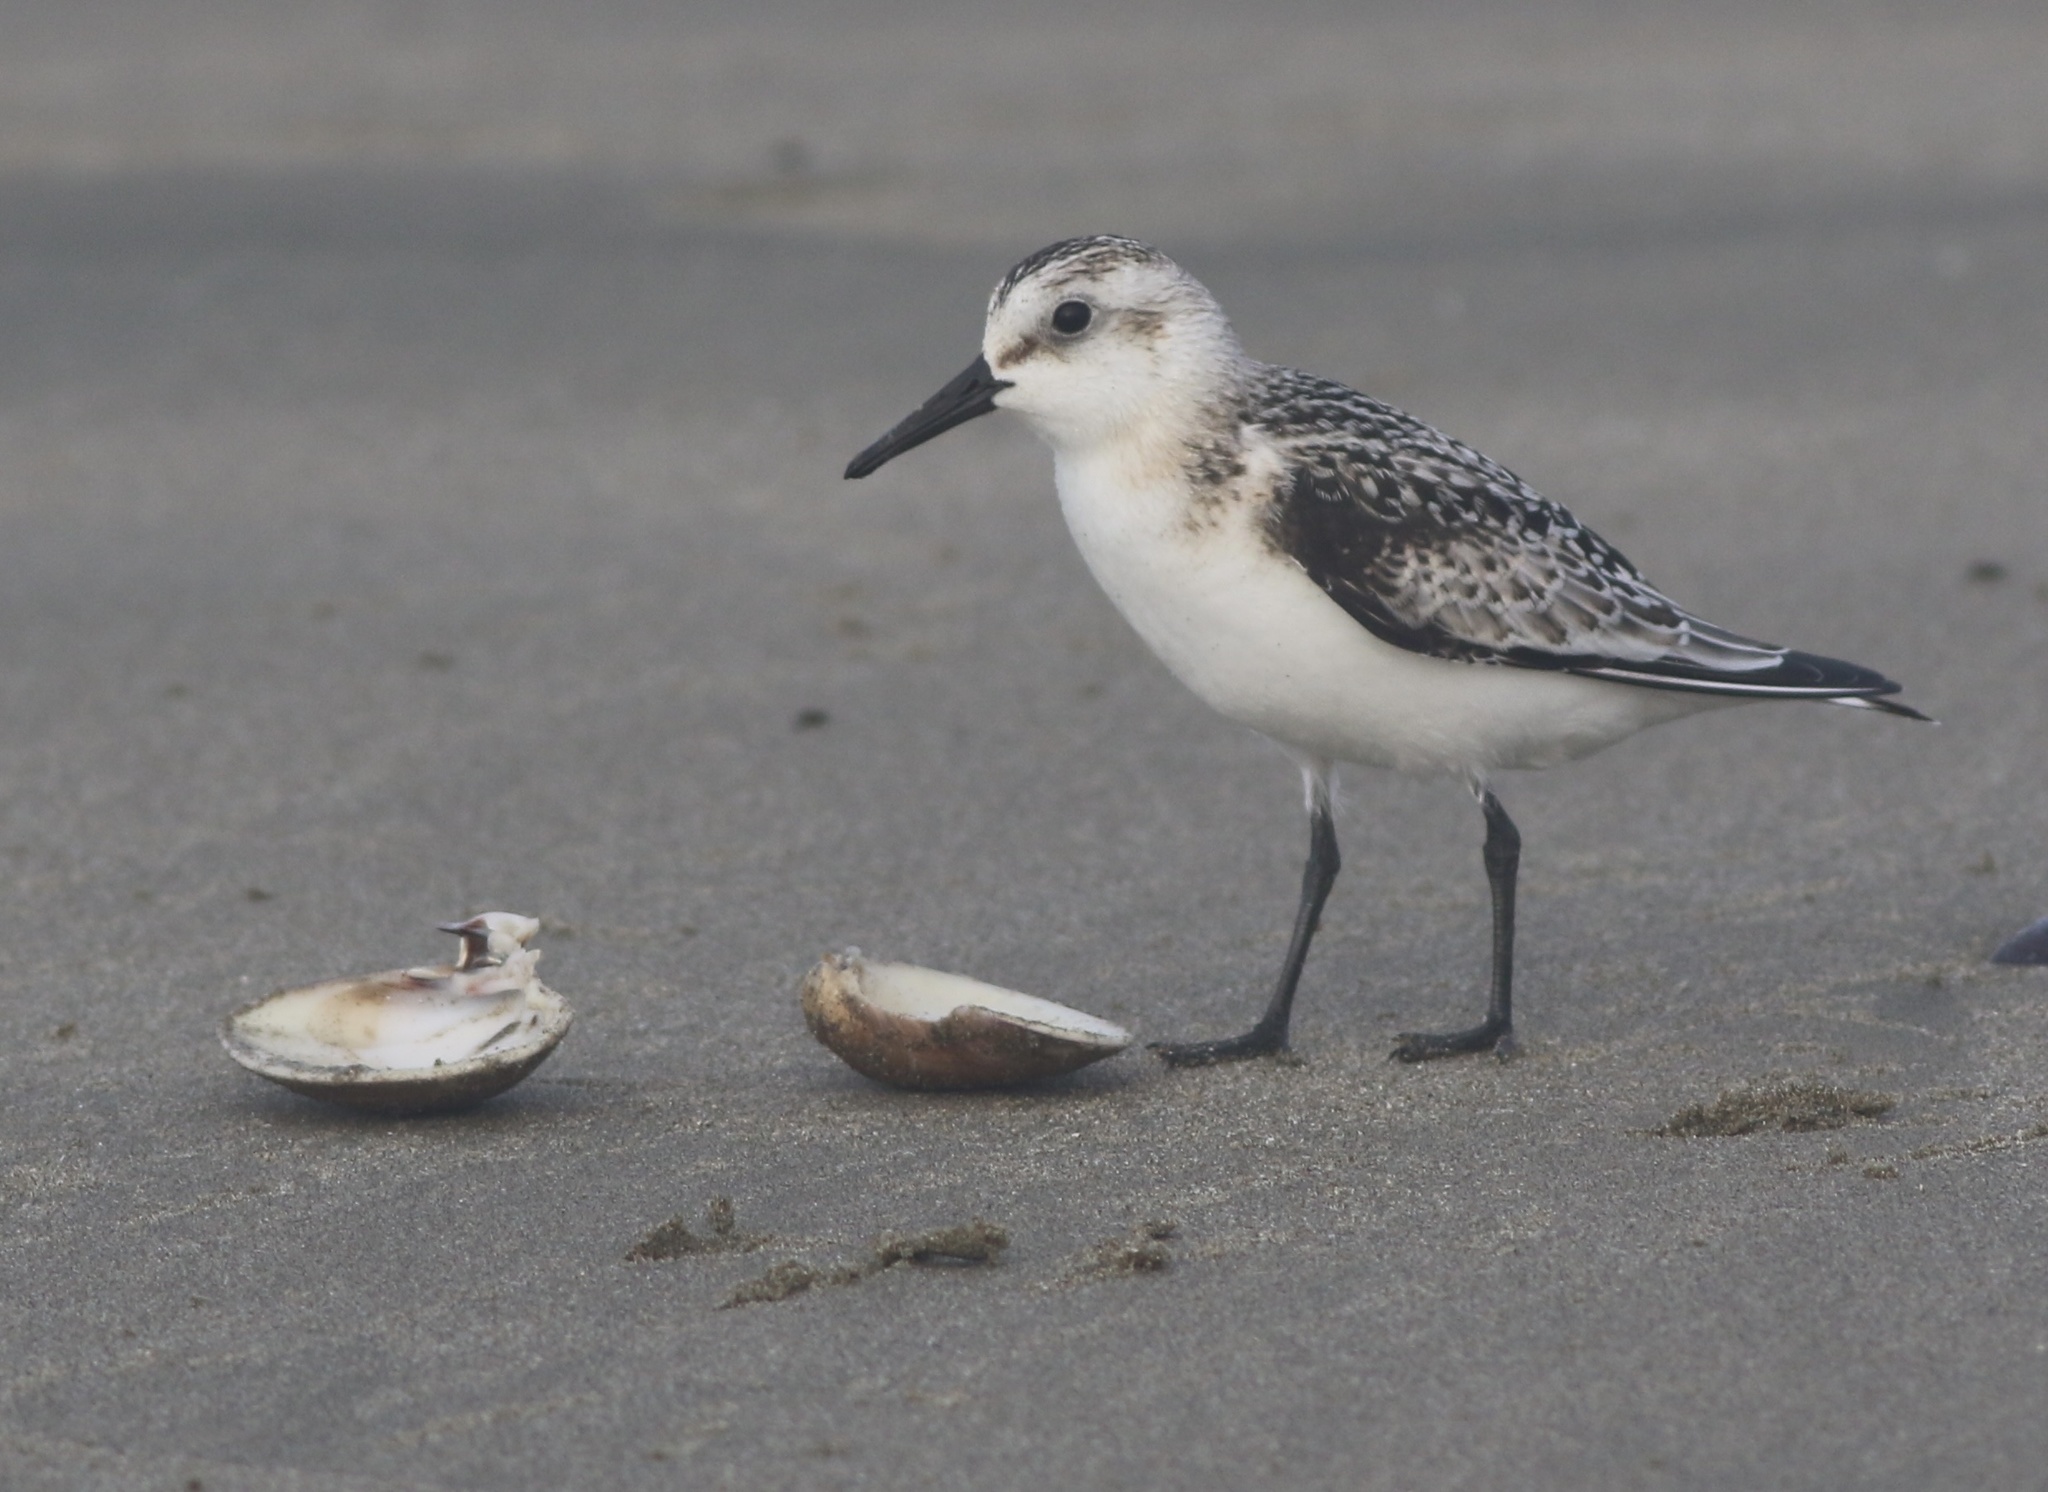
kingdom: Animalia
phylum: Chordata
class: Aves
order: Charadriiformes
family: Scolopacidae
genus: Calidris
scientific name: Calidris alba
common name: Sanderling
